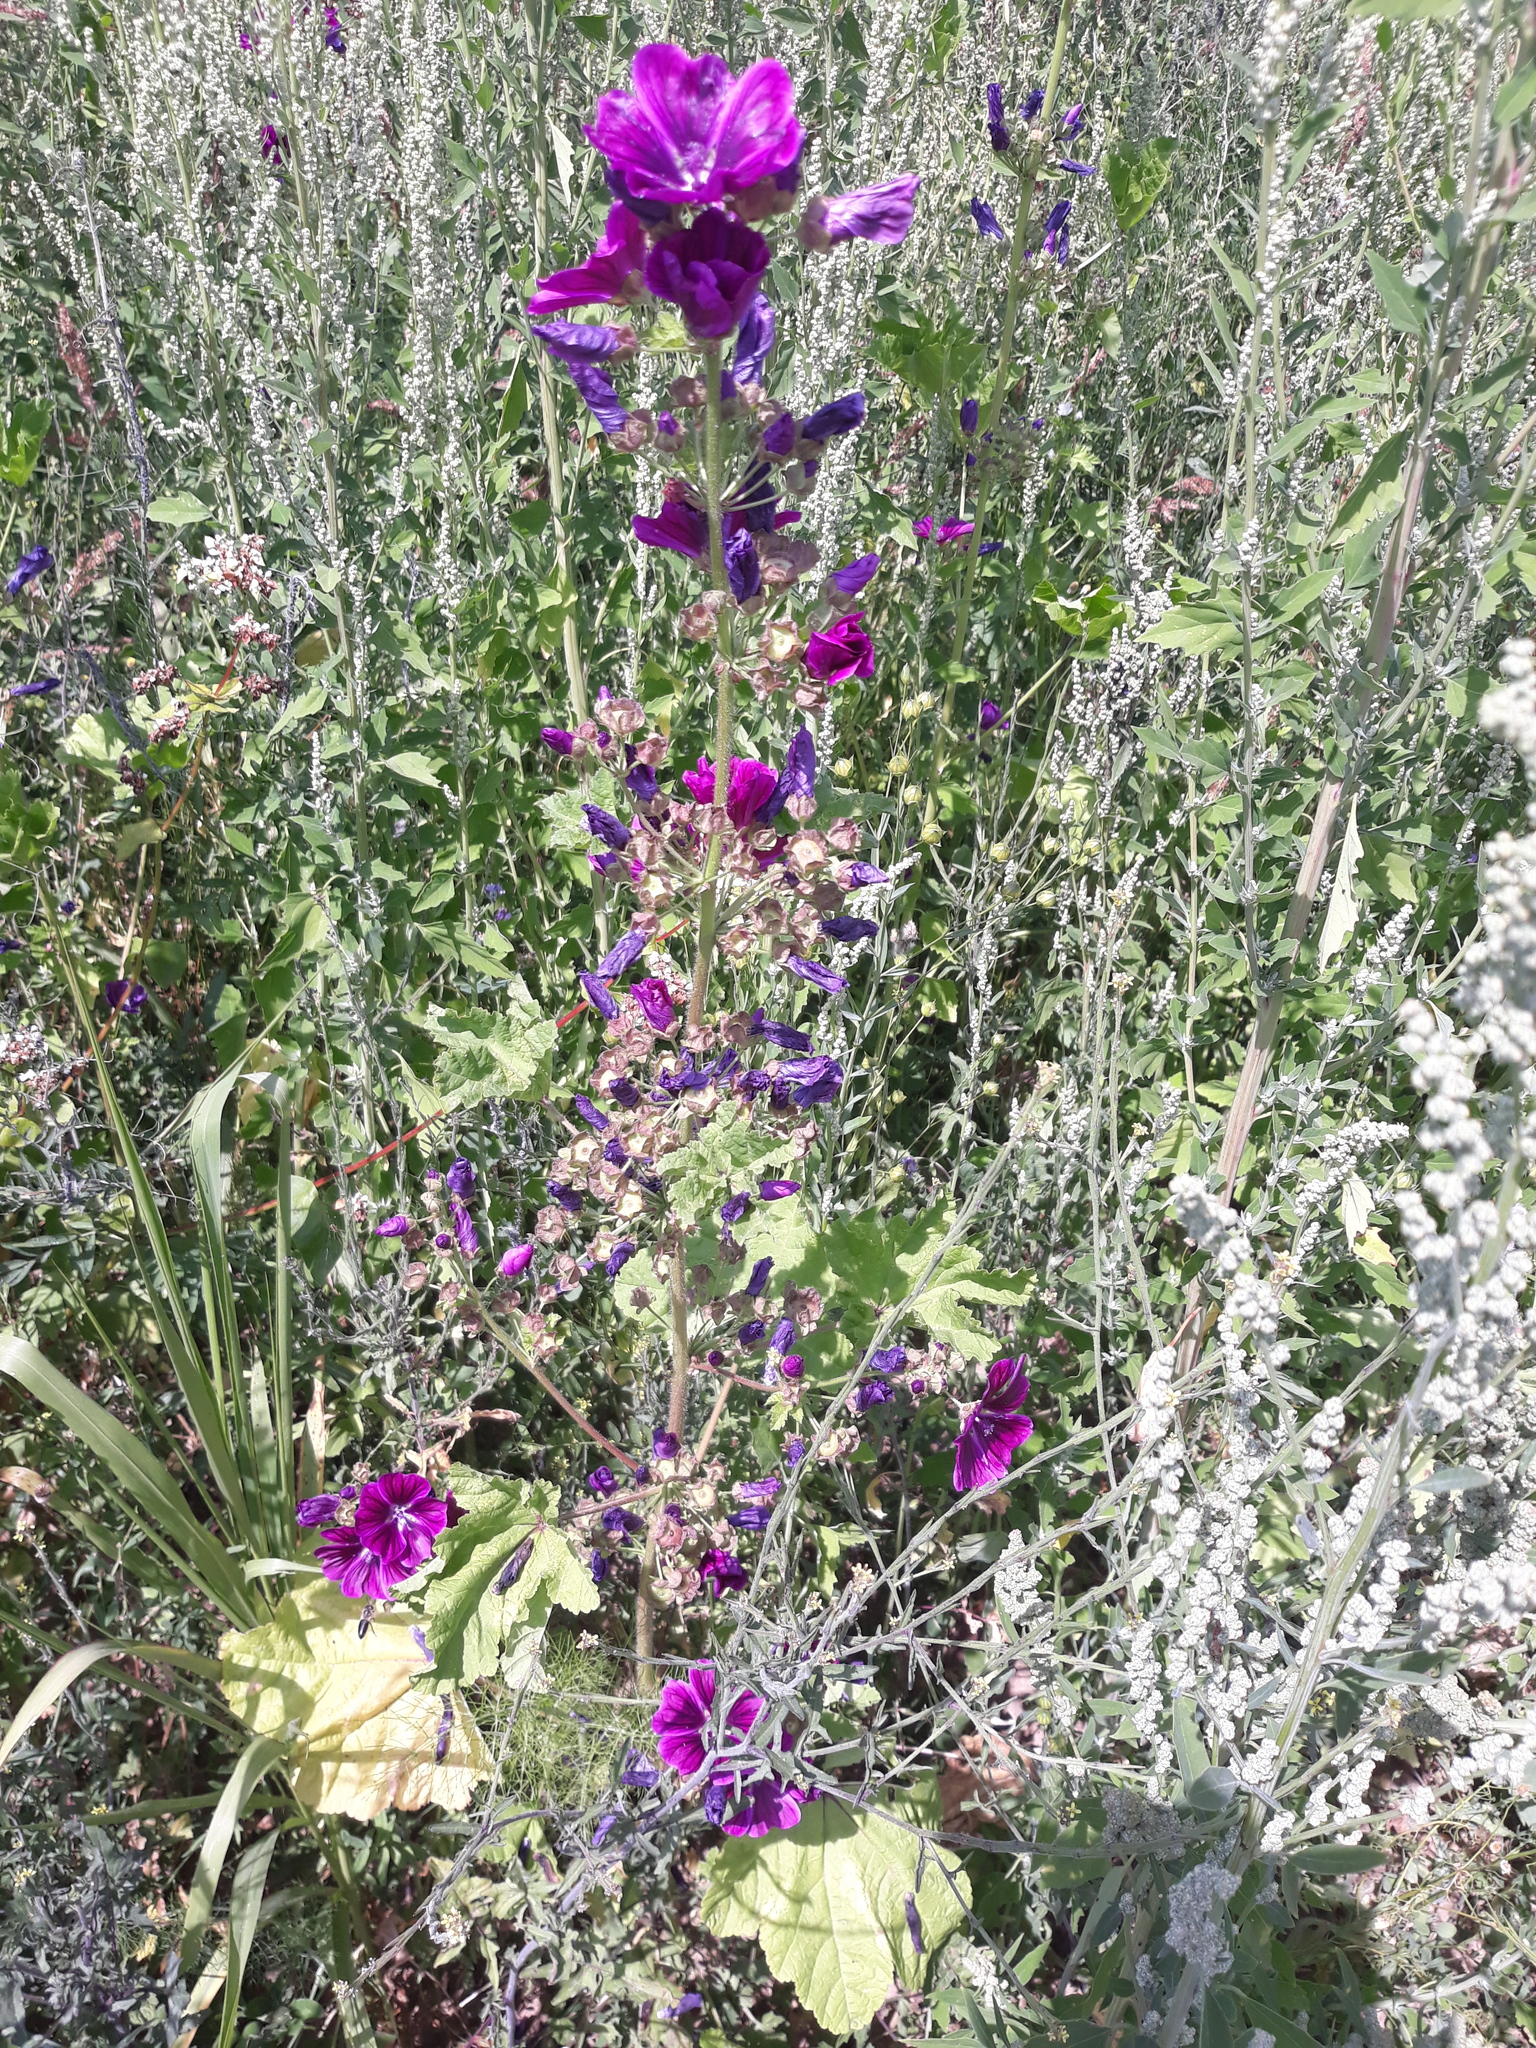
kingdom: Plantae
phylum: Tracheophyta
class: Magnoliopsida
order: Malvales
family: Malvaceae
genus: Malva
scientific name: Malva sylvestris
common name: Common mallow
